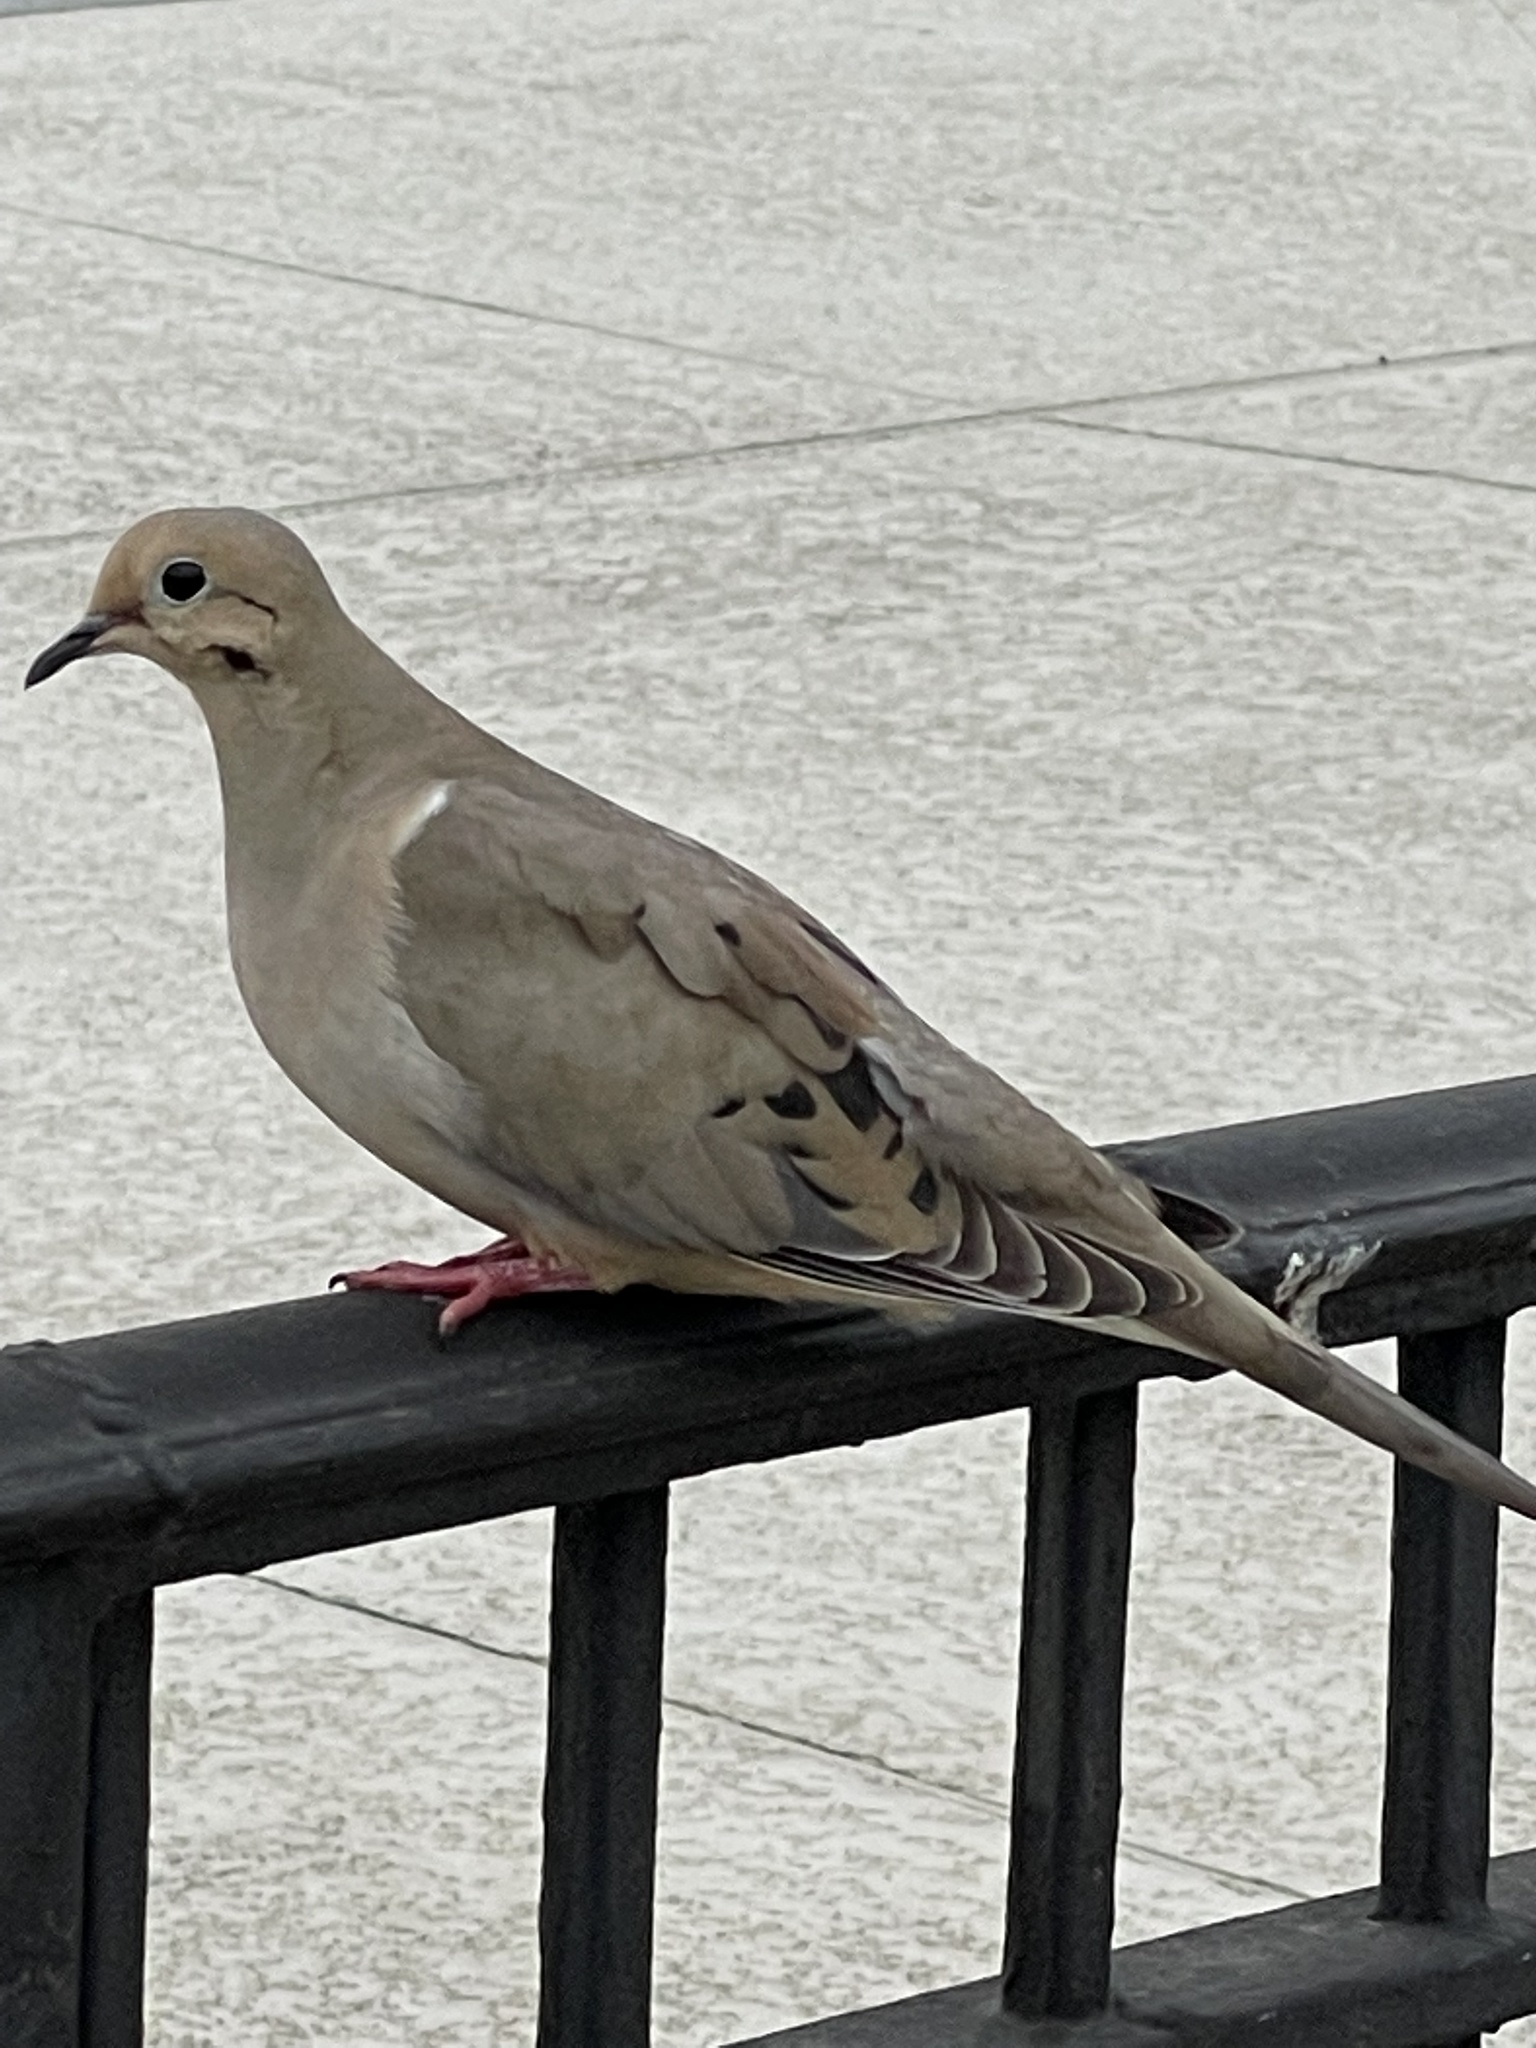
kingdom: Animalia
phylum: Chordata
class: Aves
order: Columbiformes
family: Columbidae
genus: Zenaida
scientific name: Zenaida macroura
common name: Mourning dove
